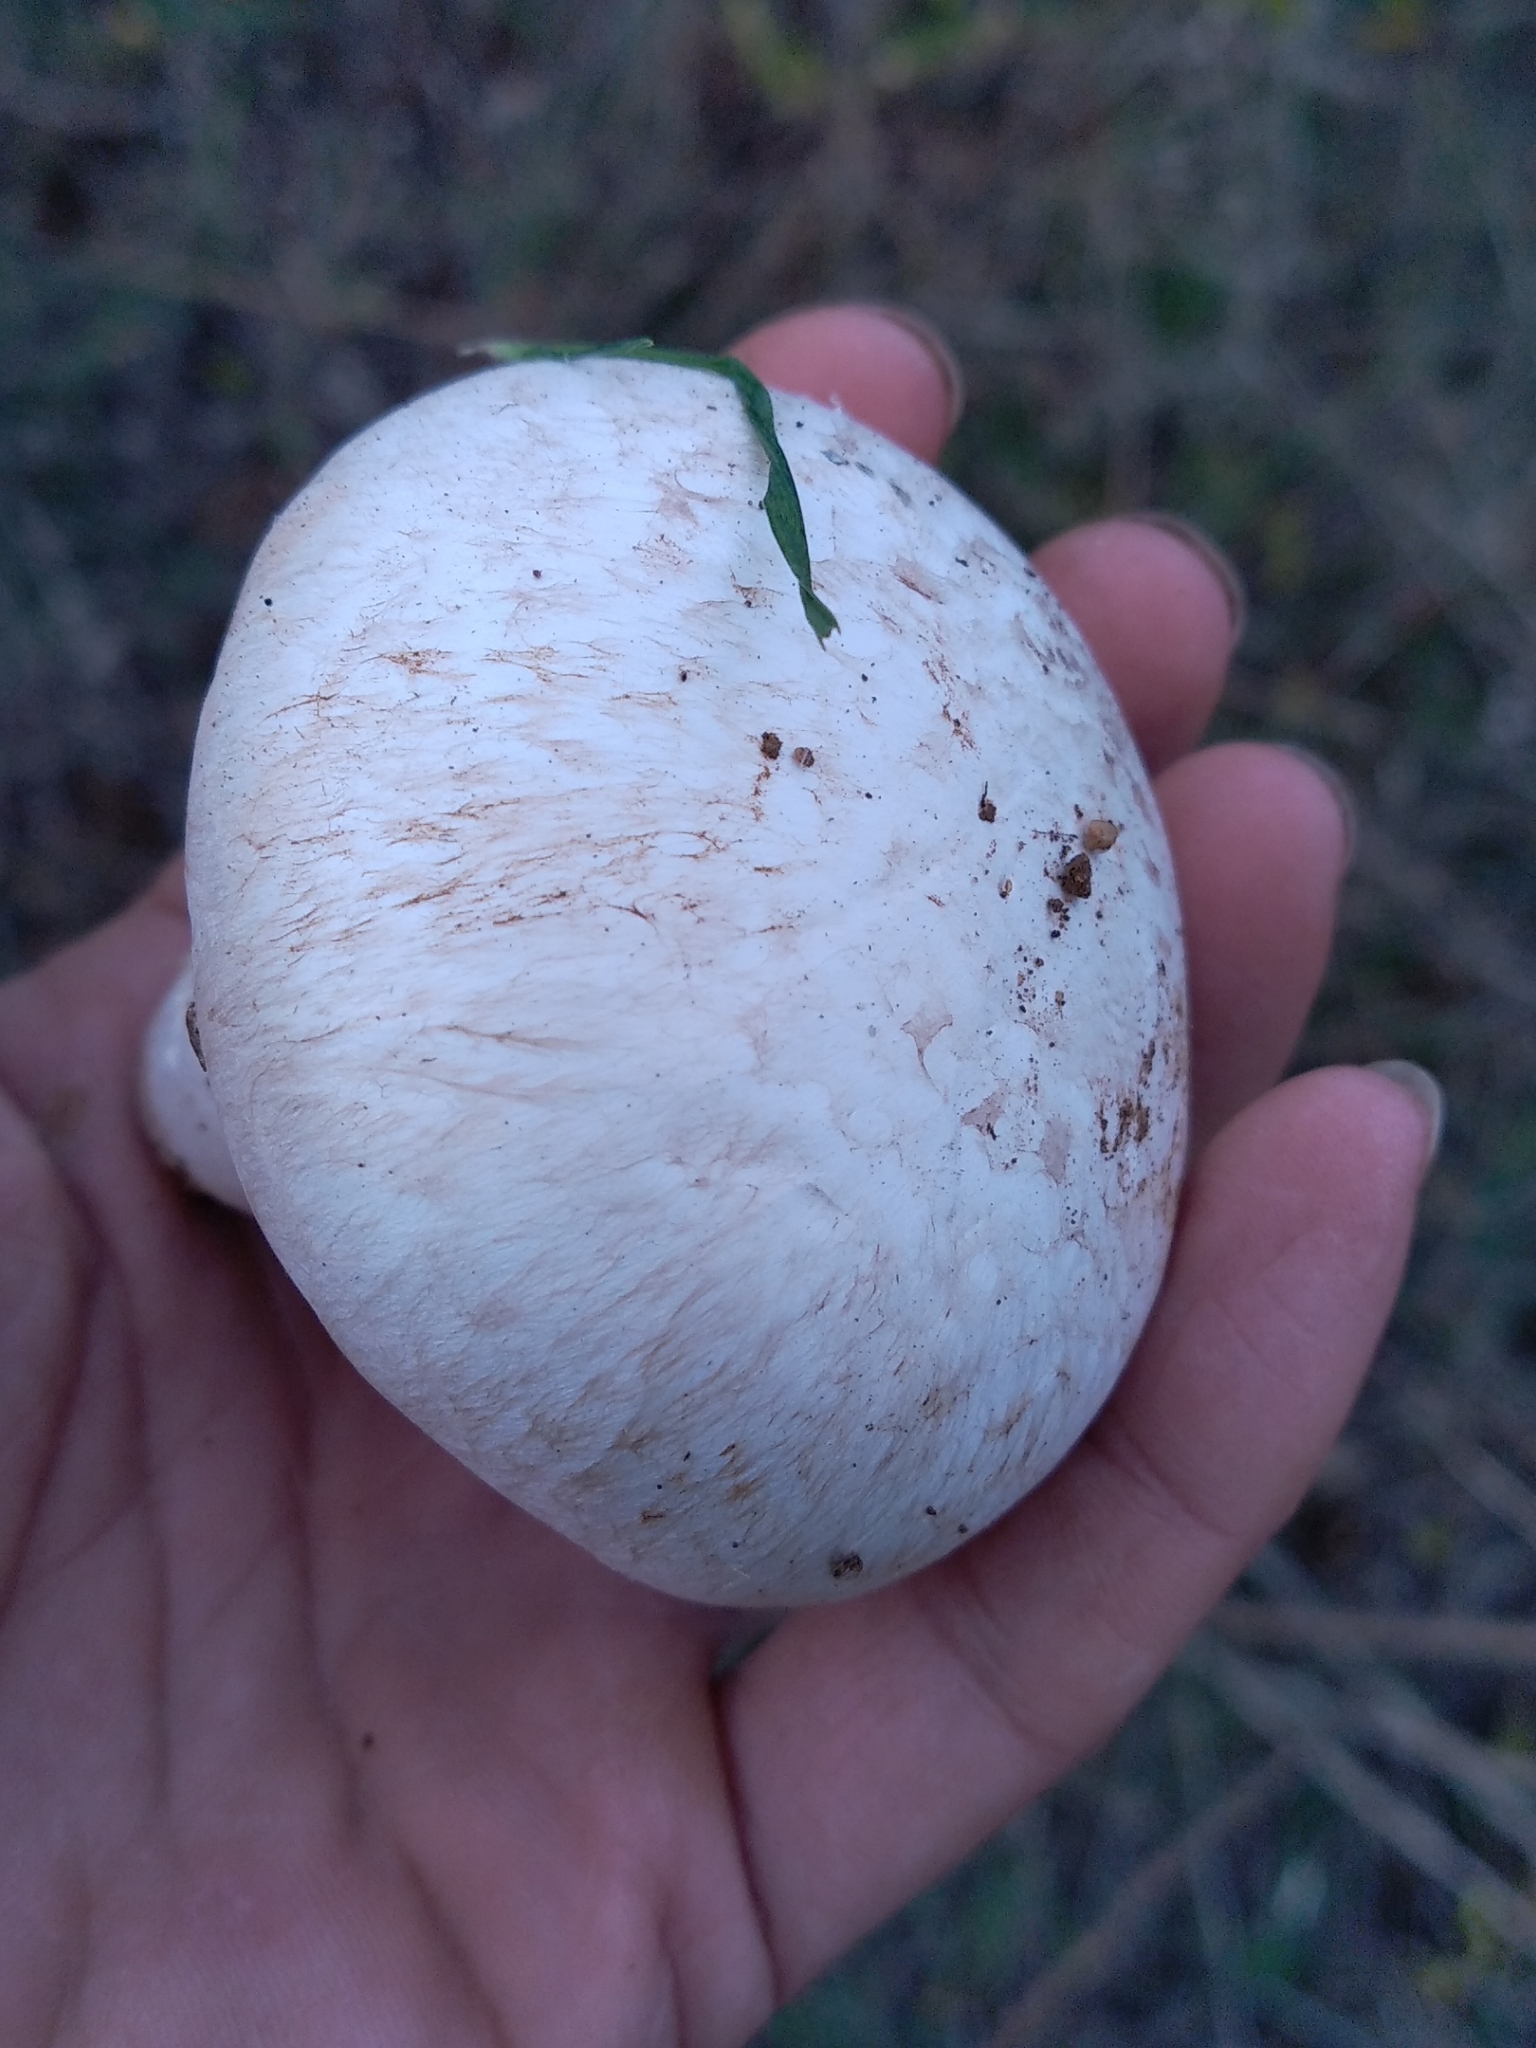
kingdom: Fungi
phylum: Basidiomycota
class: Agaricomycetes
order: Agaricales
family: Agaricaceae
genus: Agaricus
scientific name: Agaricus campestris
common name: Field mushroom
